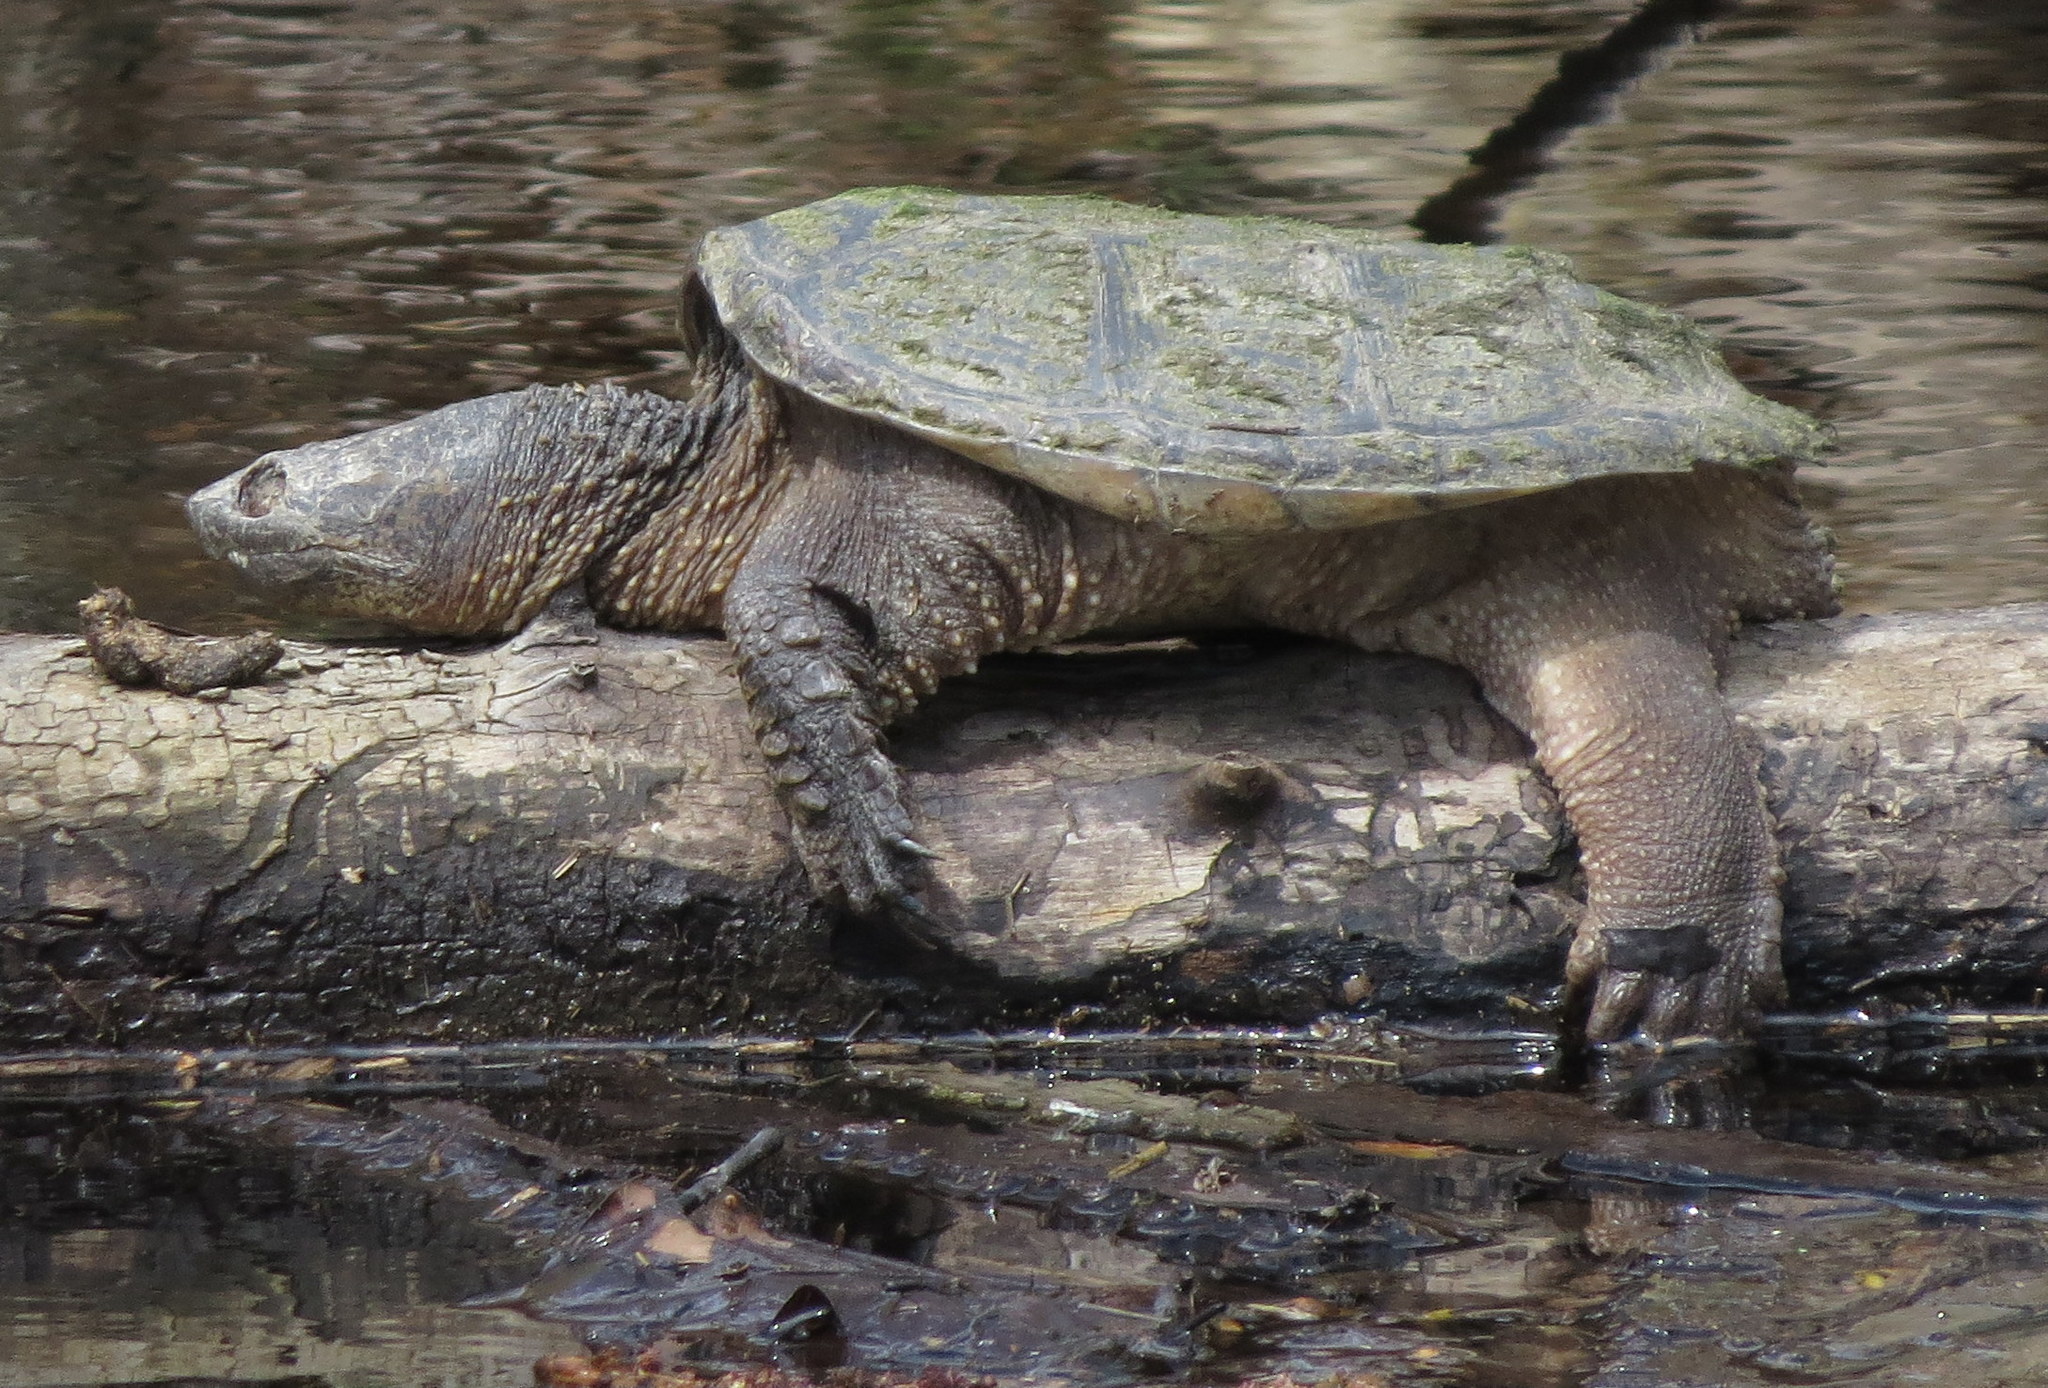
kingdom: Animalia
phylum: Chordata
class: Testudines
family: Chelydridae
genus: Chelydra
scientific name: Chelydra serpentina
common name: Common snapping turtle
